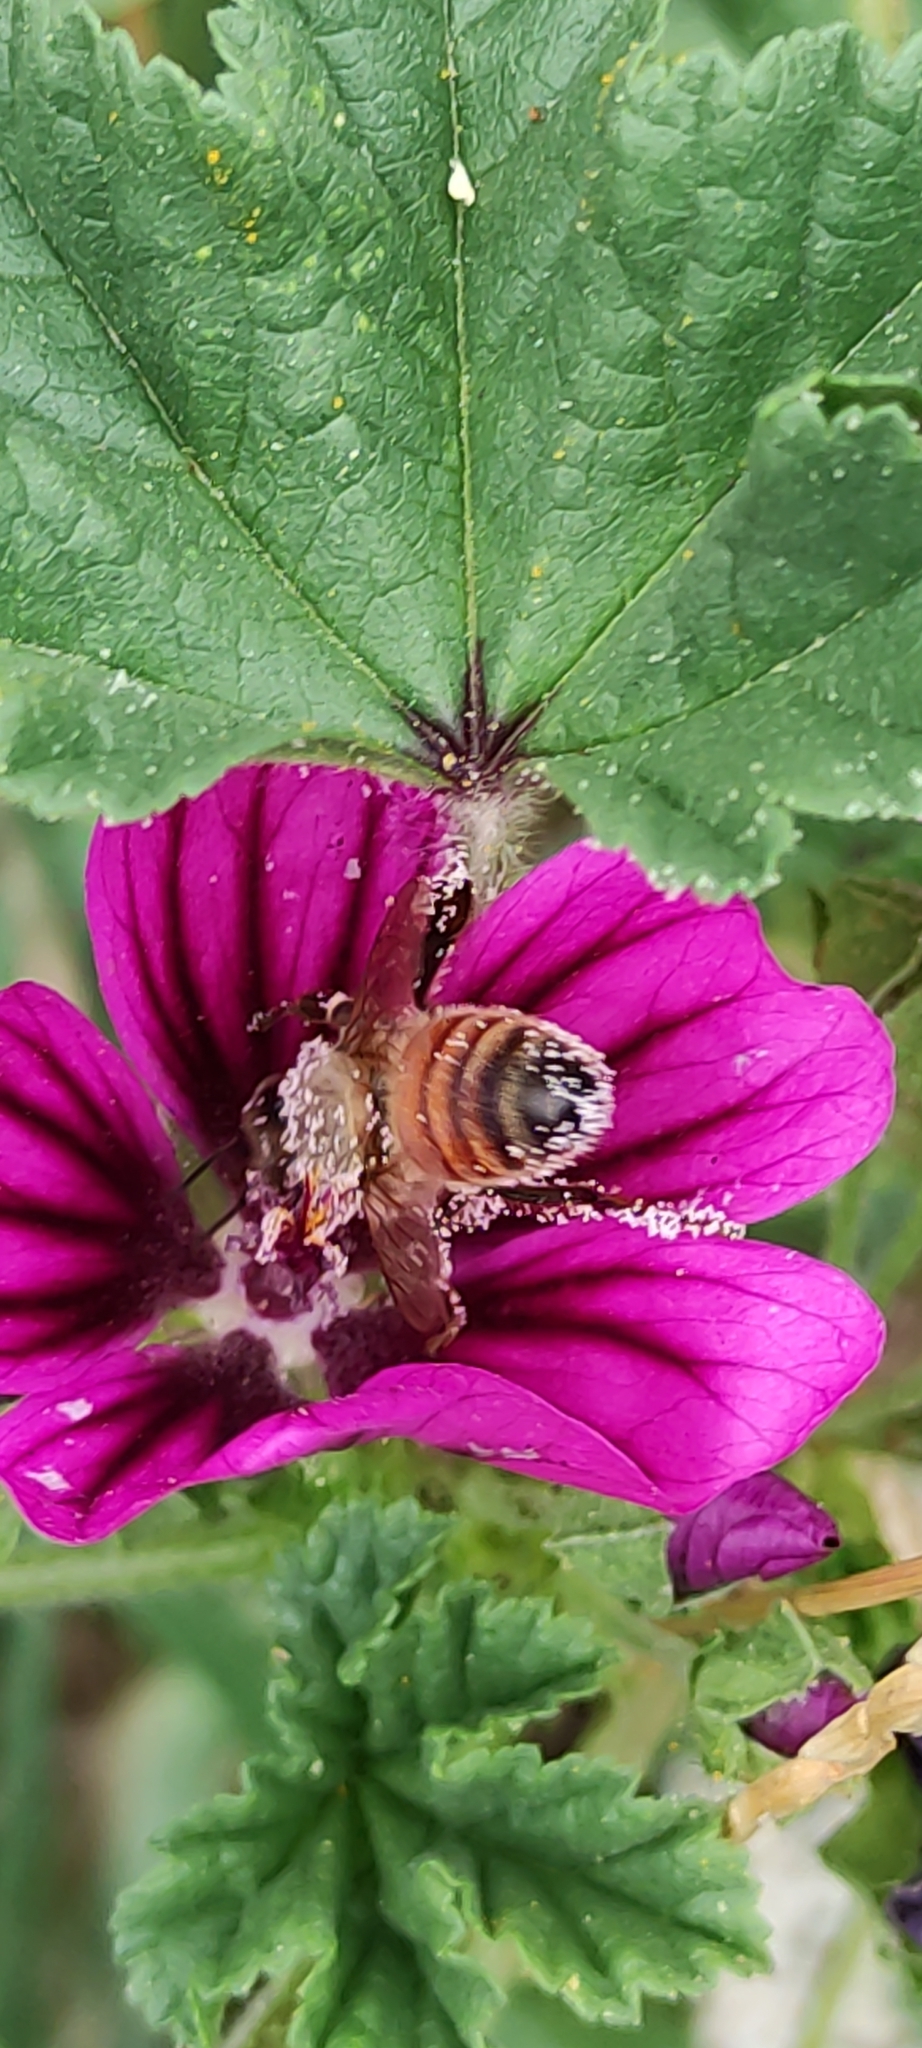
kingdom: Animalia
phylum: Arthropoda
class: Insecta
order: Hymenoptera
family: Apidae
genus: Apis
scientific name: Apis mellifera
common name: Honey bee
